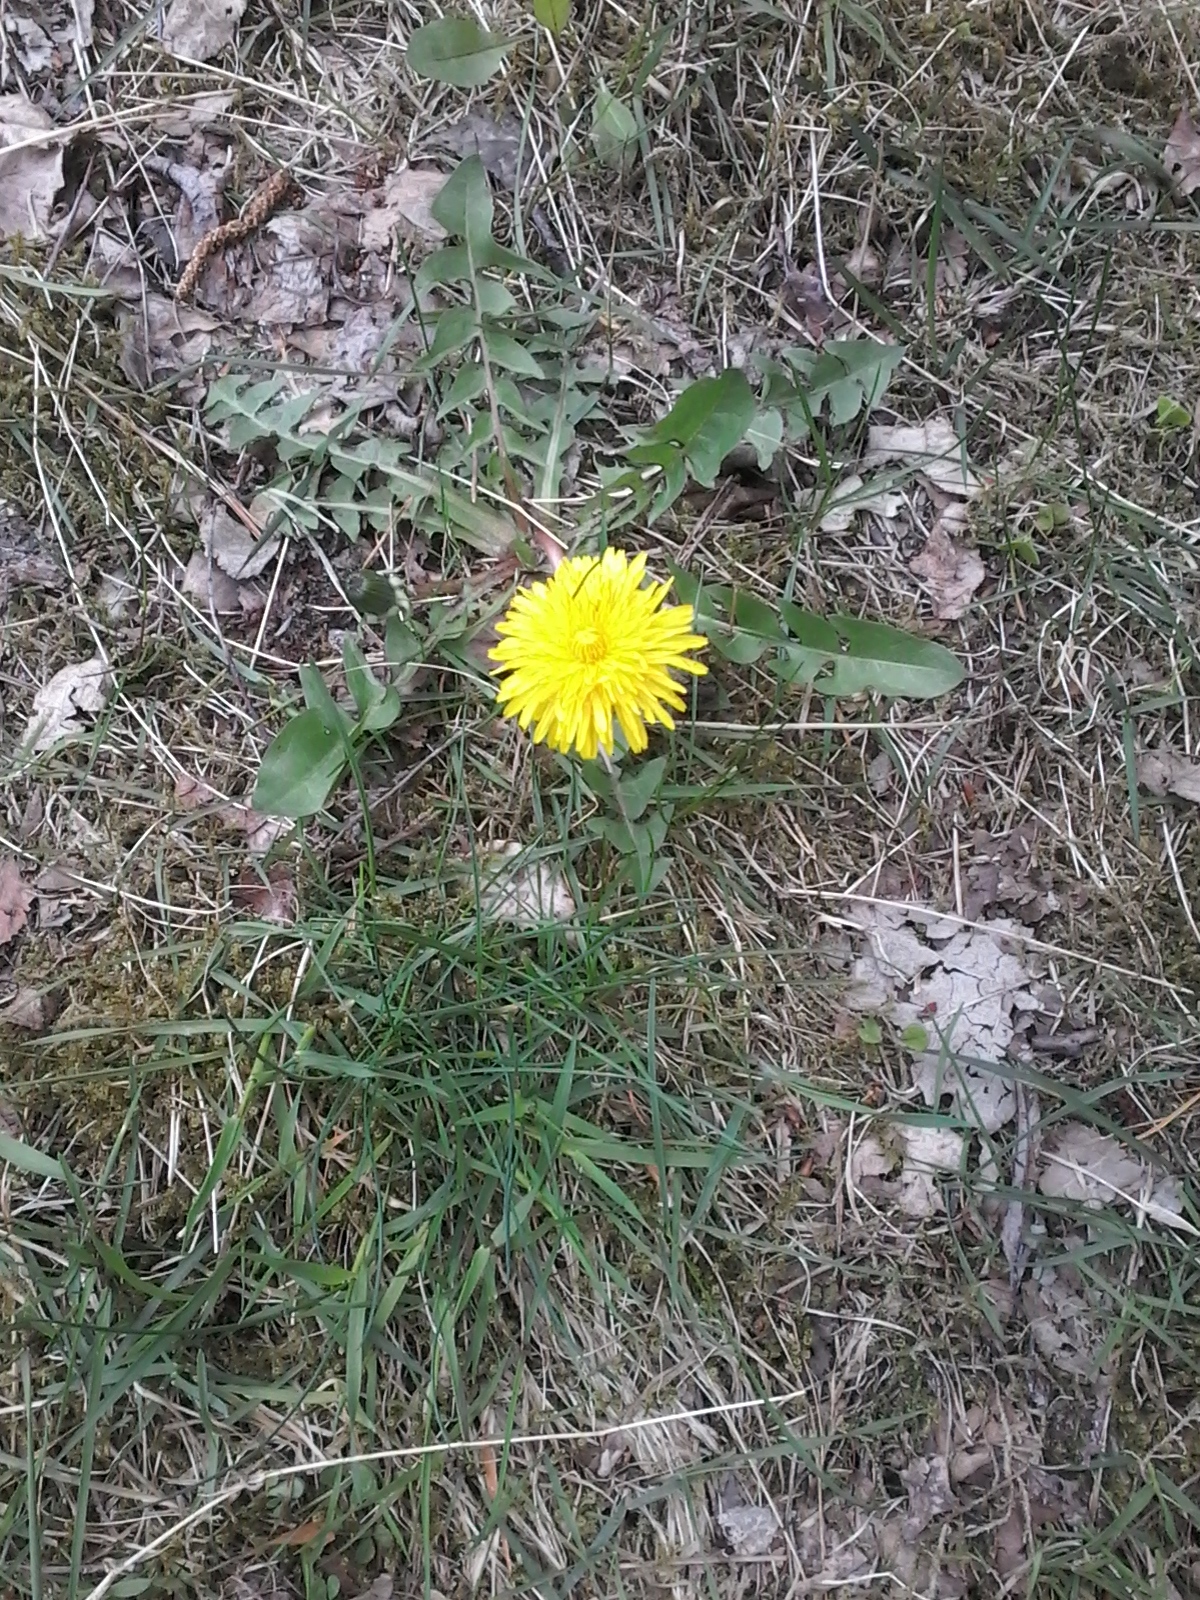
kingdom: Plantae
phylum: Tracheophyta
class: Magnoliopsida
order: Asterales
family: Asteraceae
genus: Taraxacum
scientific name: Taraxacum officinale
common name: Common dandelion
